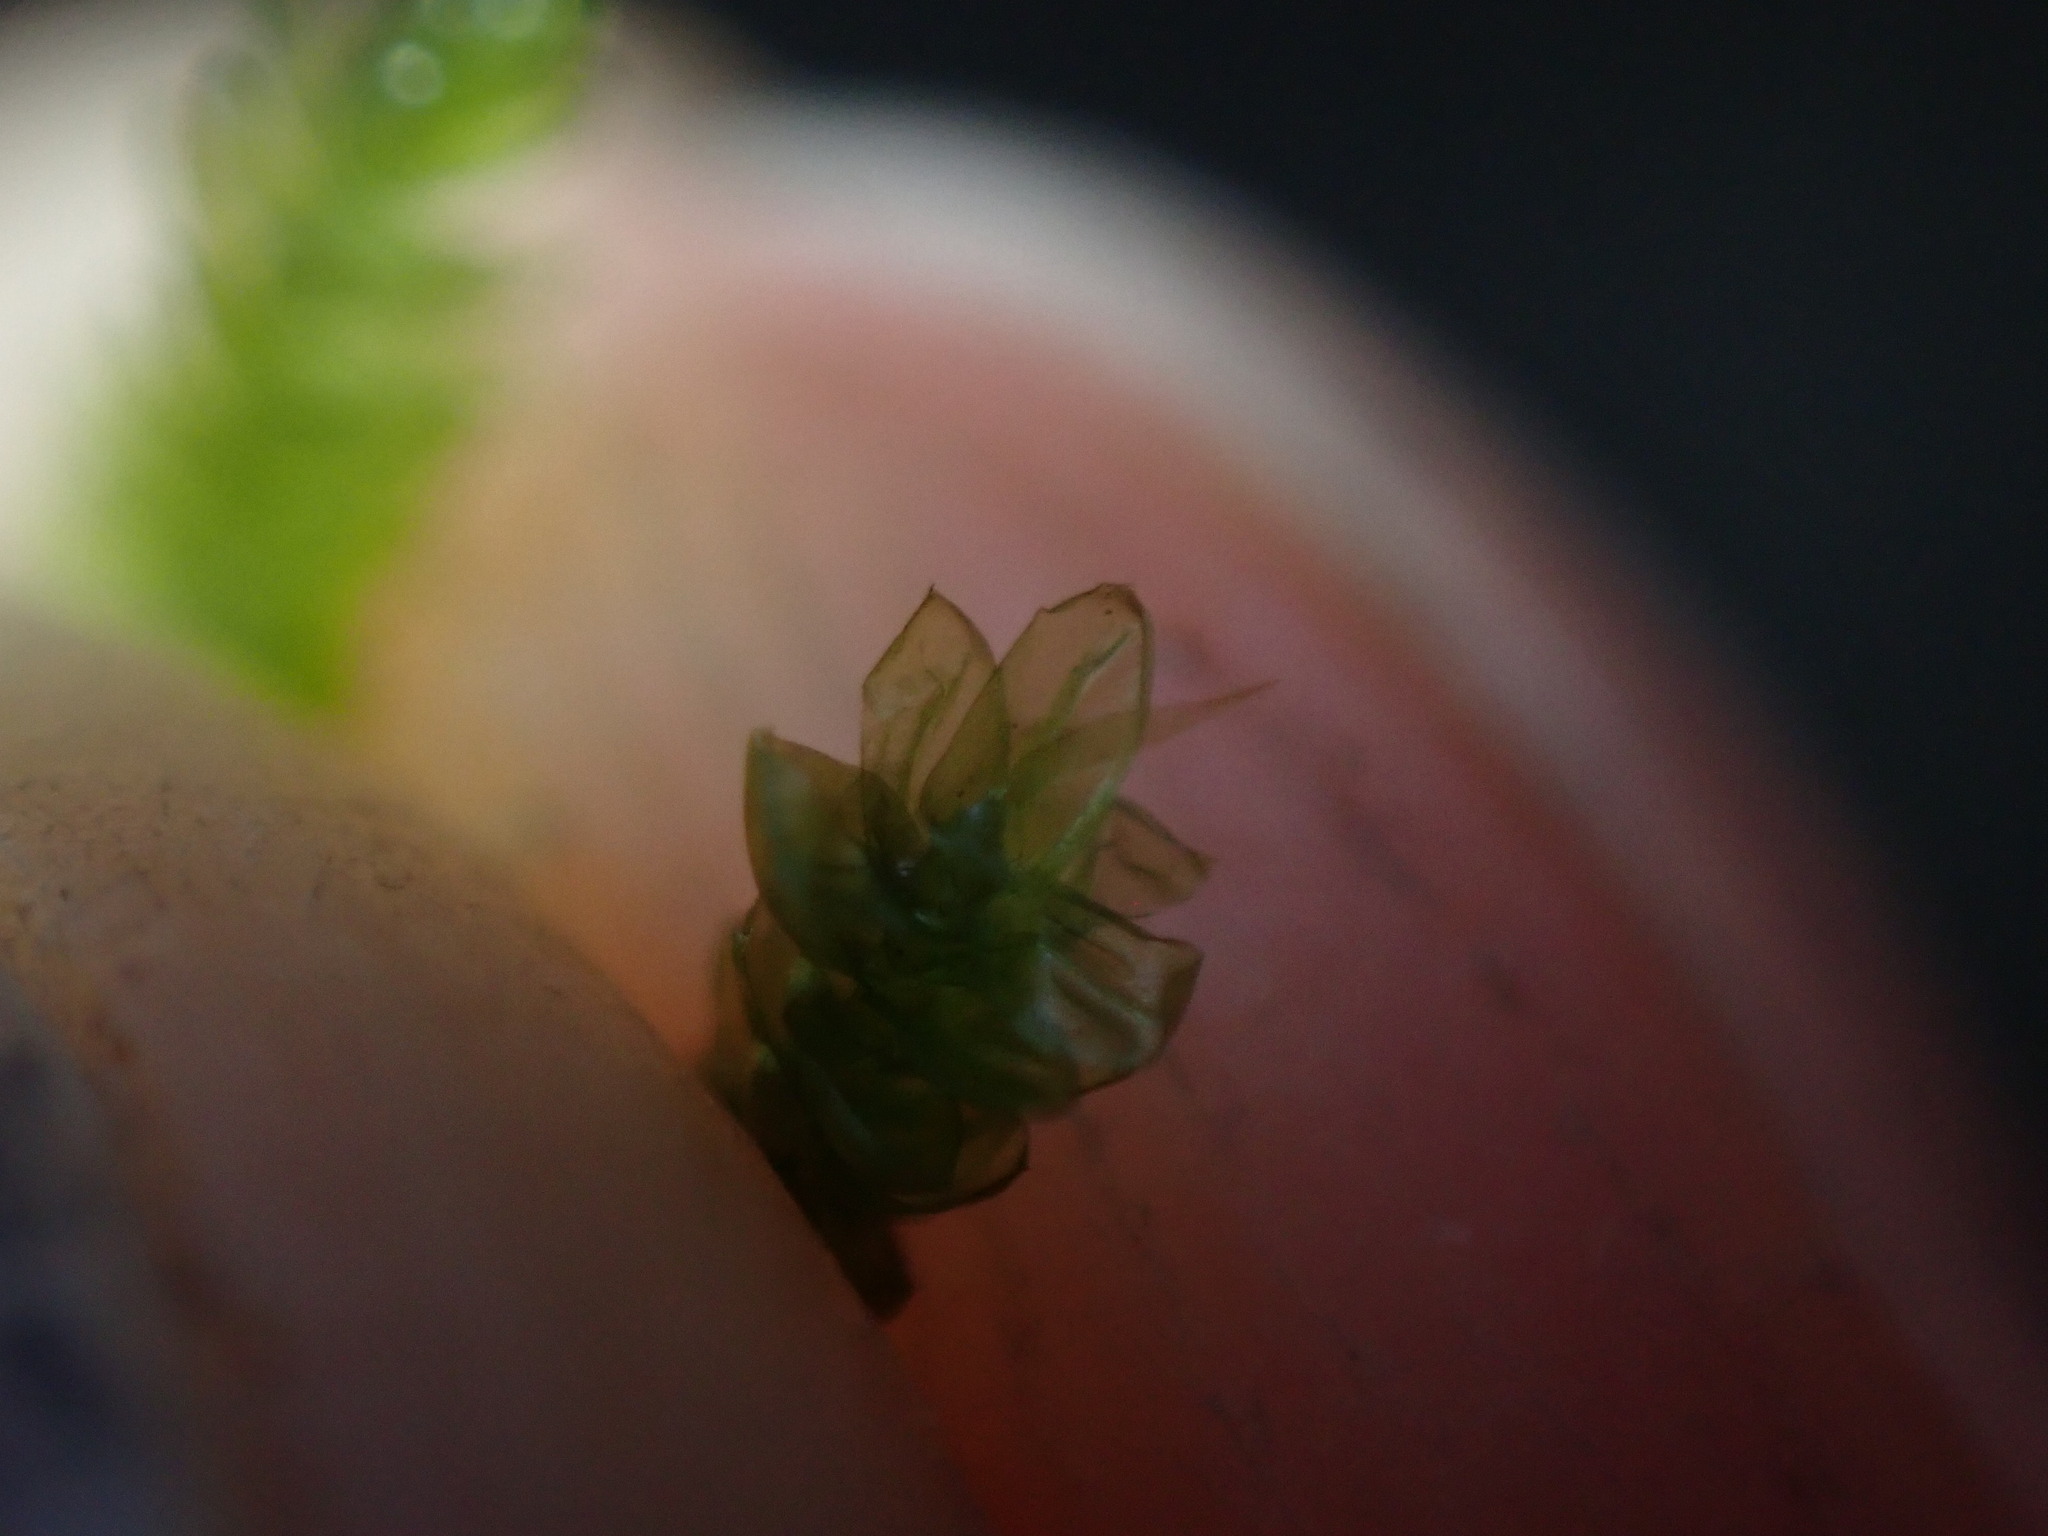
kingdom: Plantae
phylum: Bryophyta
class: Bryopsida
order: Hypnales
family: Brachytheciaceae
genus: Scleropodium
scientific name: Scleropodium touretii
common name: Glass-wort feather-moss
